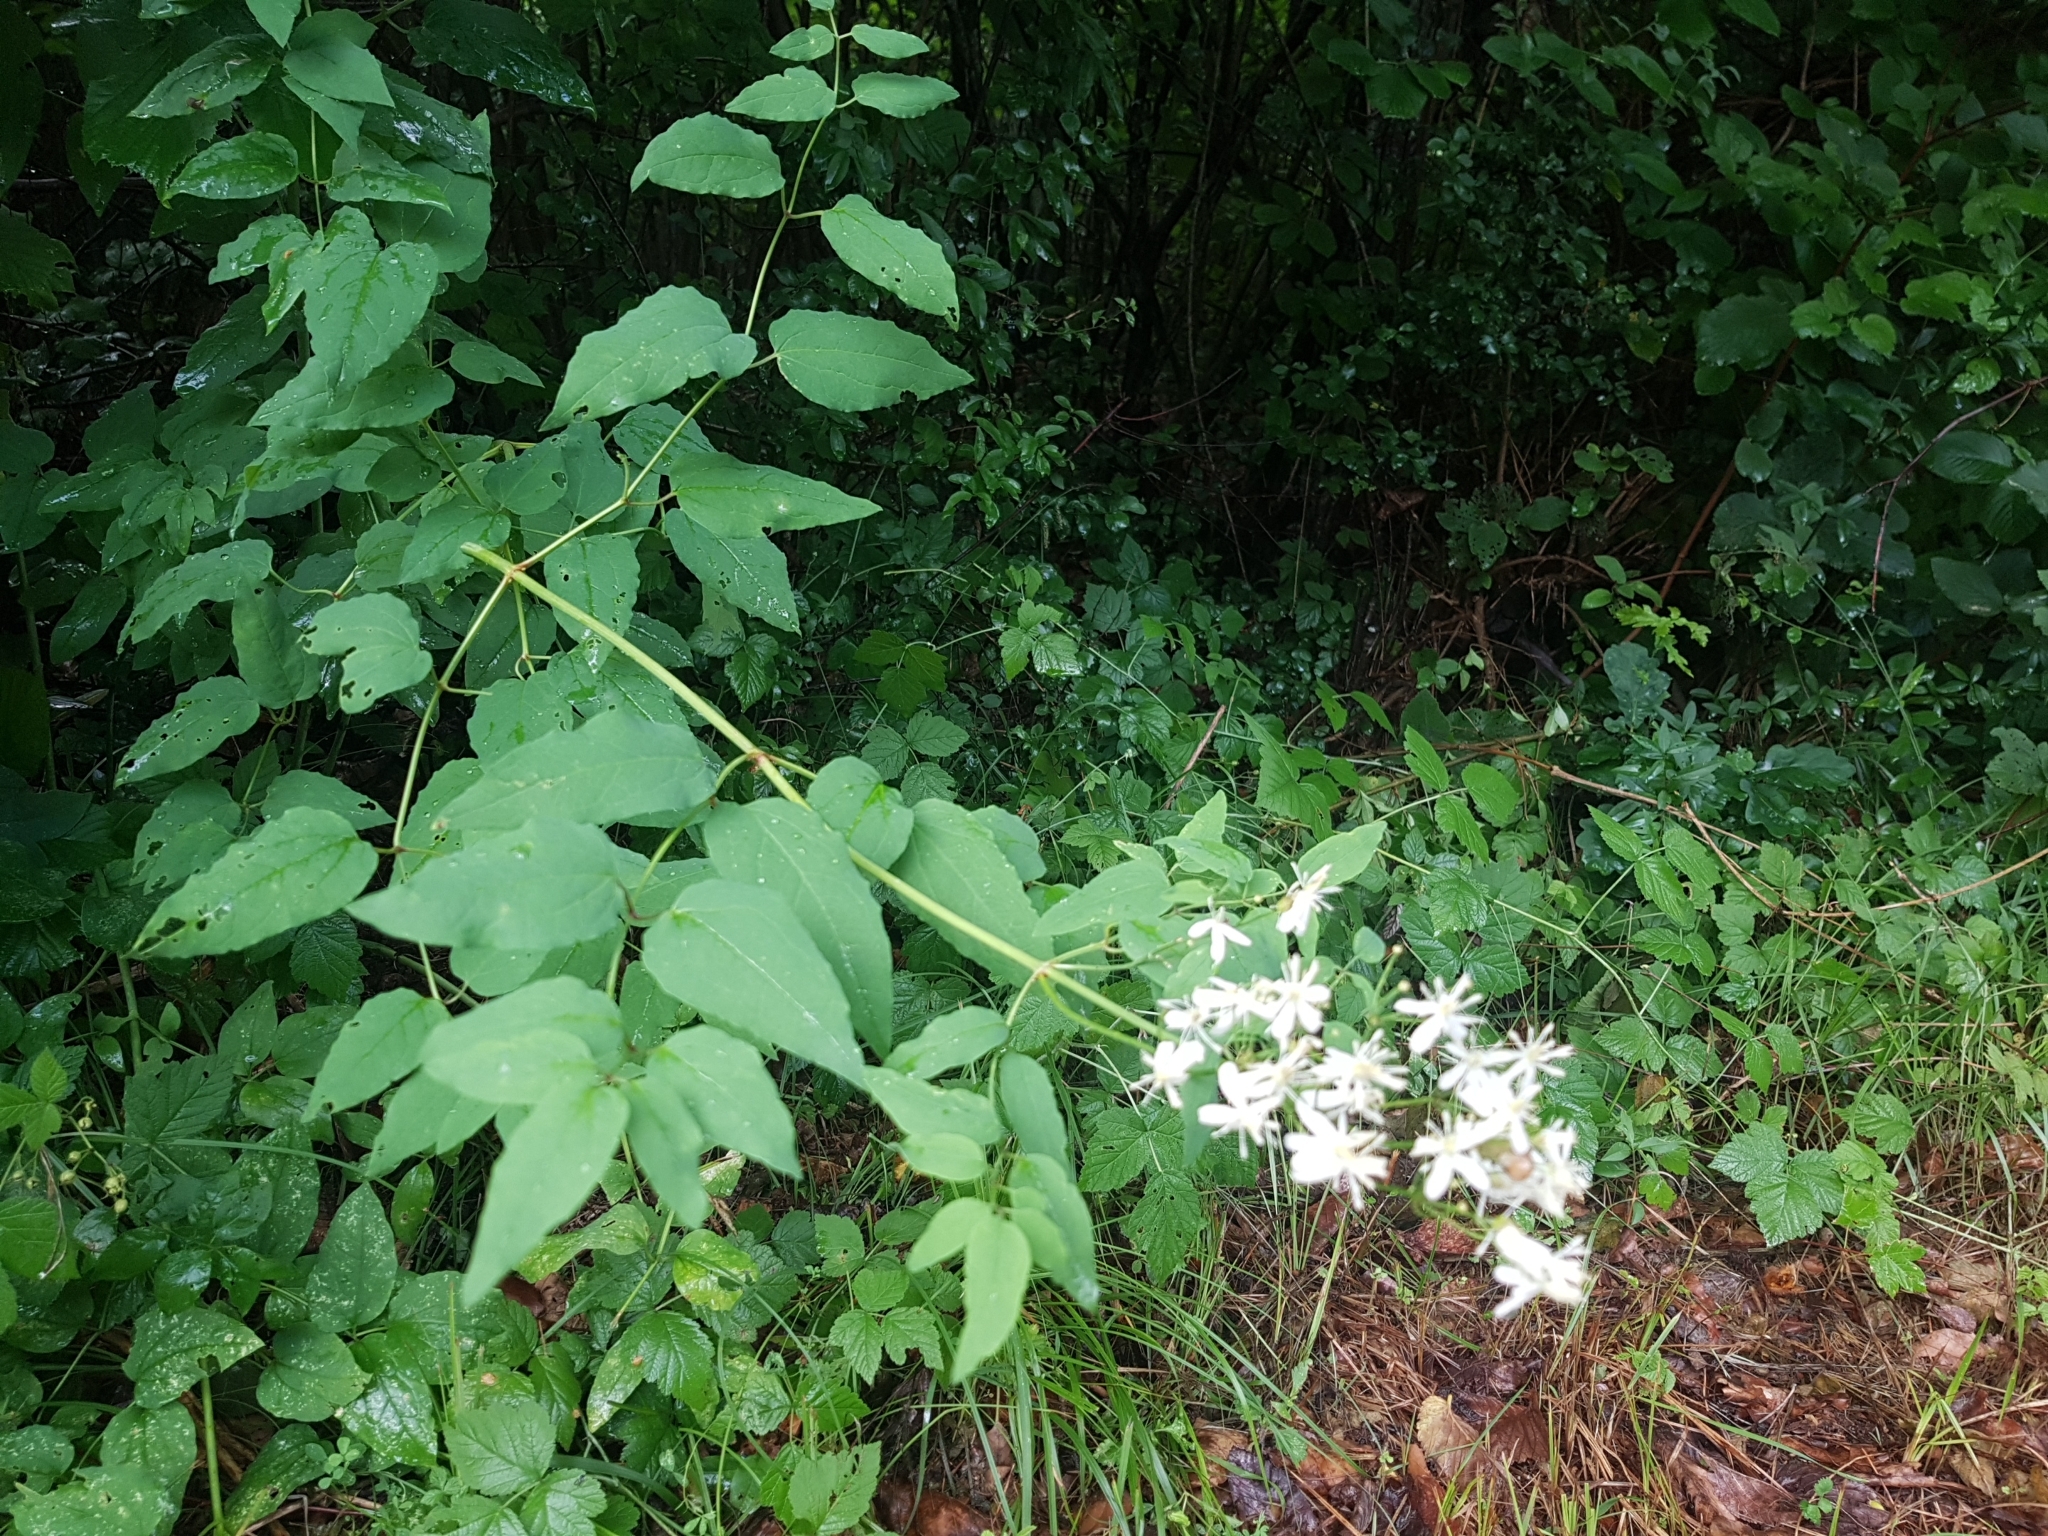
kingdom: Plantae
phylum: Tracheophyta
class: Magnoliopsida
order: Ranunculales
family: Ranunculaceae
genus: Clematis
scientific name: Clematis recta
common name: Ground clematis
